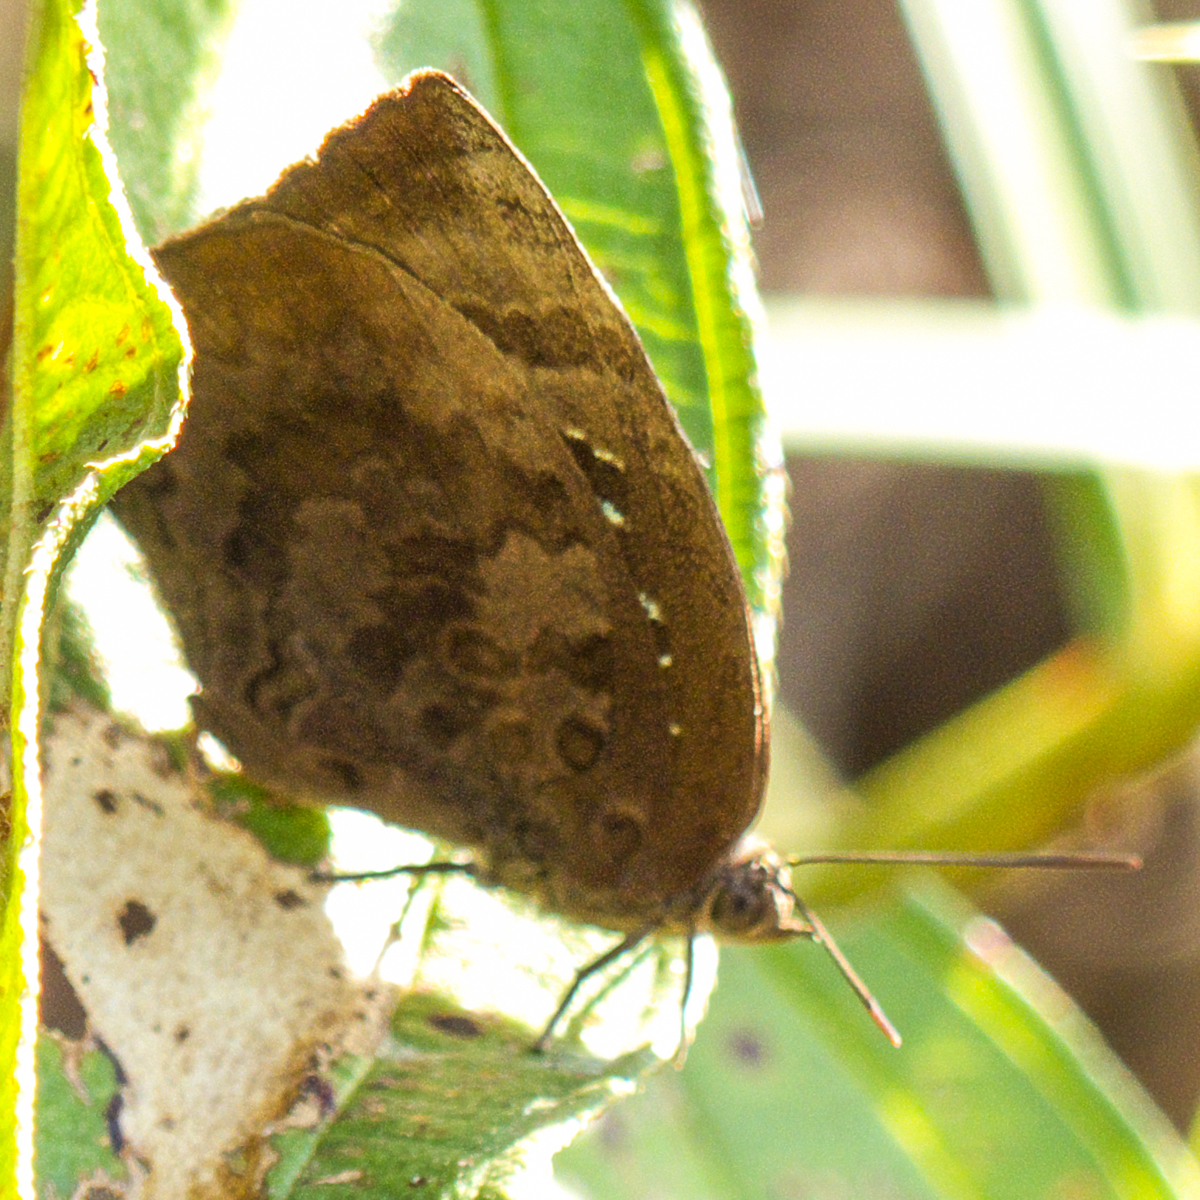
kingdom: Animalia
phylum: Arthropoda
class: Insecta
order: Lepidoptera
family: Lycaenidae
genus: Arhopala
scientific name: Arhopala centaurus
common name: Dull oak-blue
